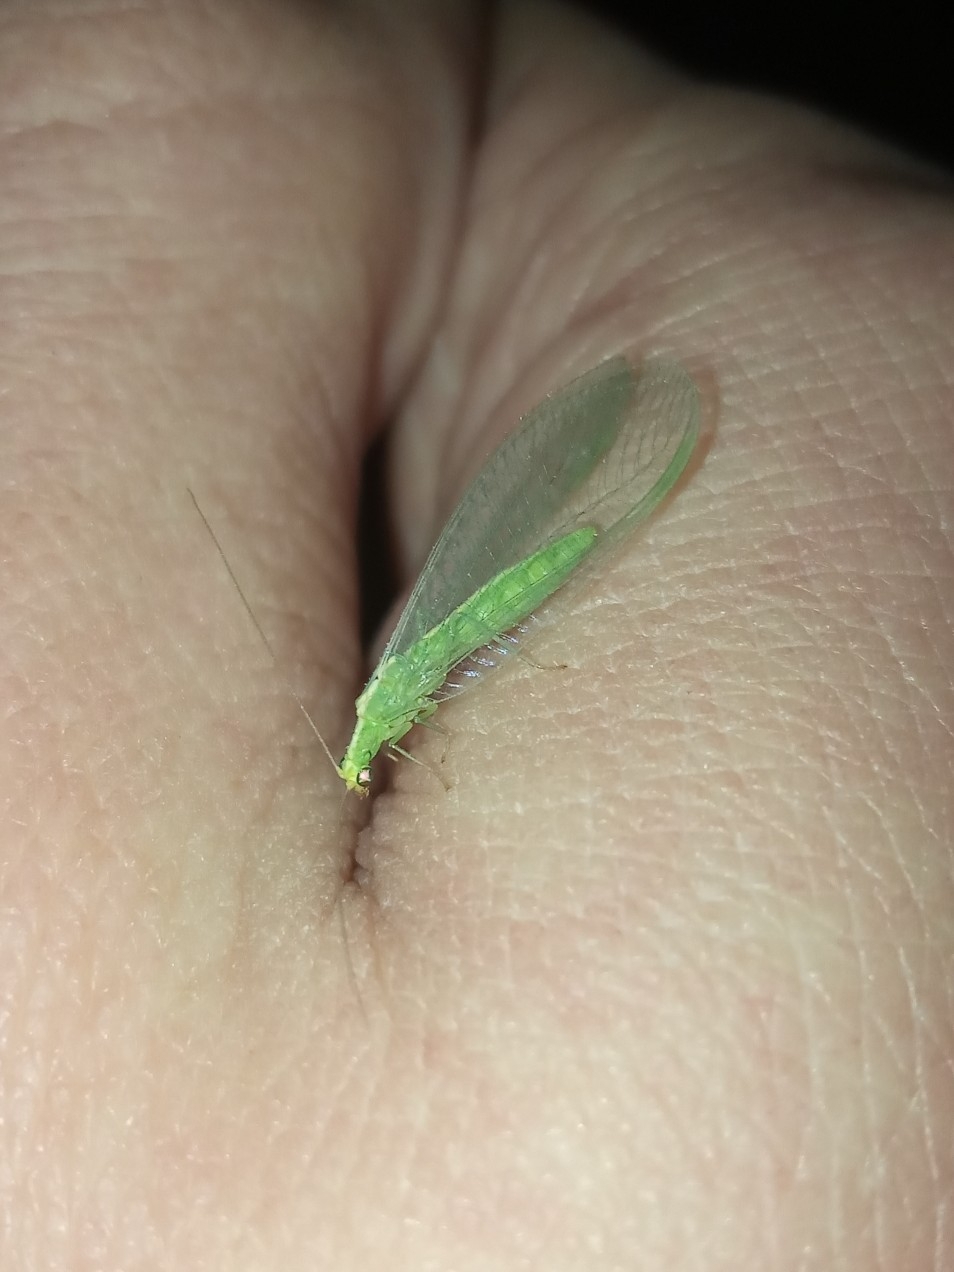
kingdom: Animalia
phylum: Arthropoda
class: Insecta
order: Neuroptera
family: Chrysopidae
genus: Chrysoperla
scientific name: Chrysoperla
